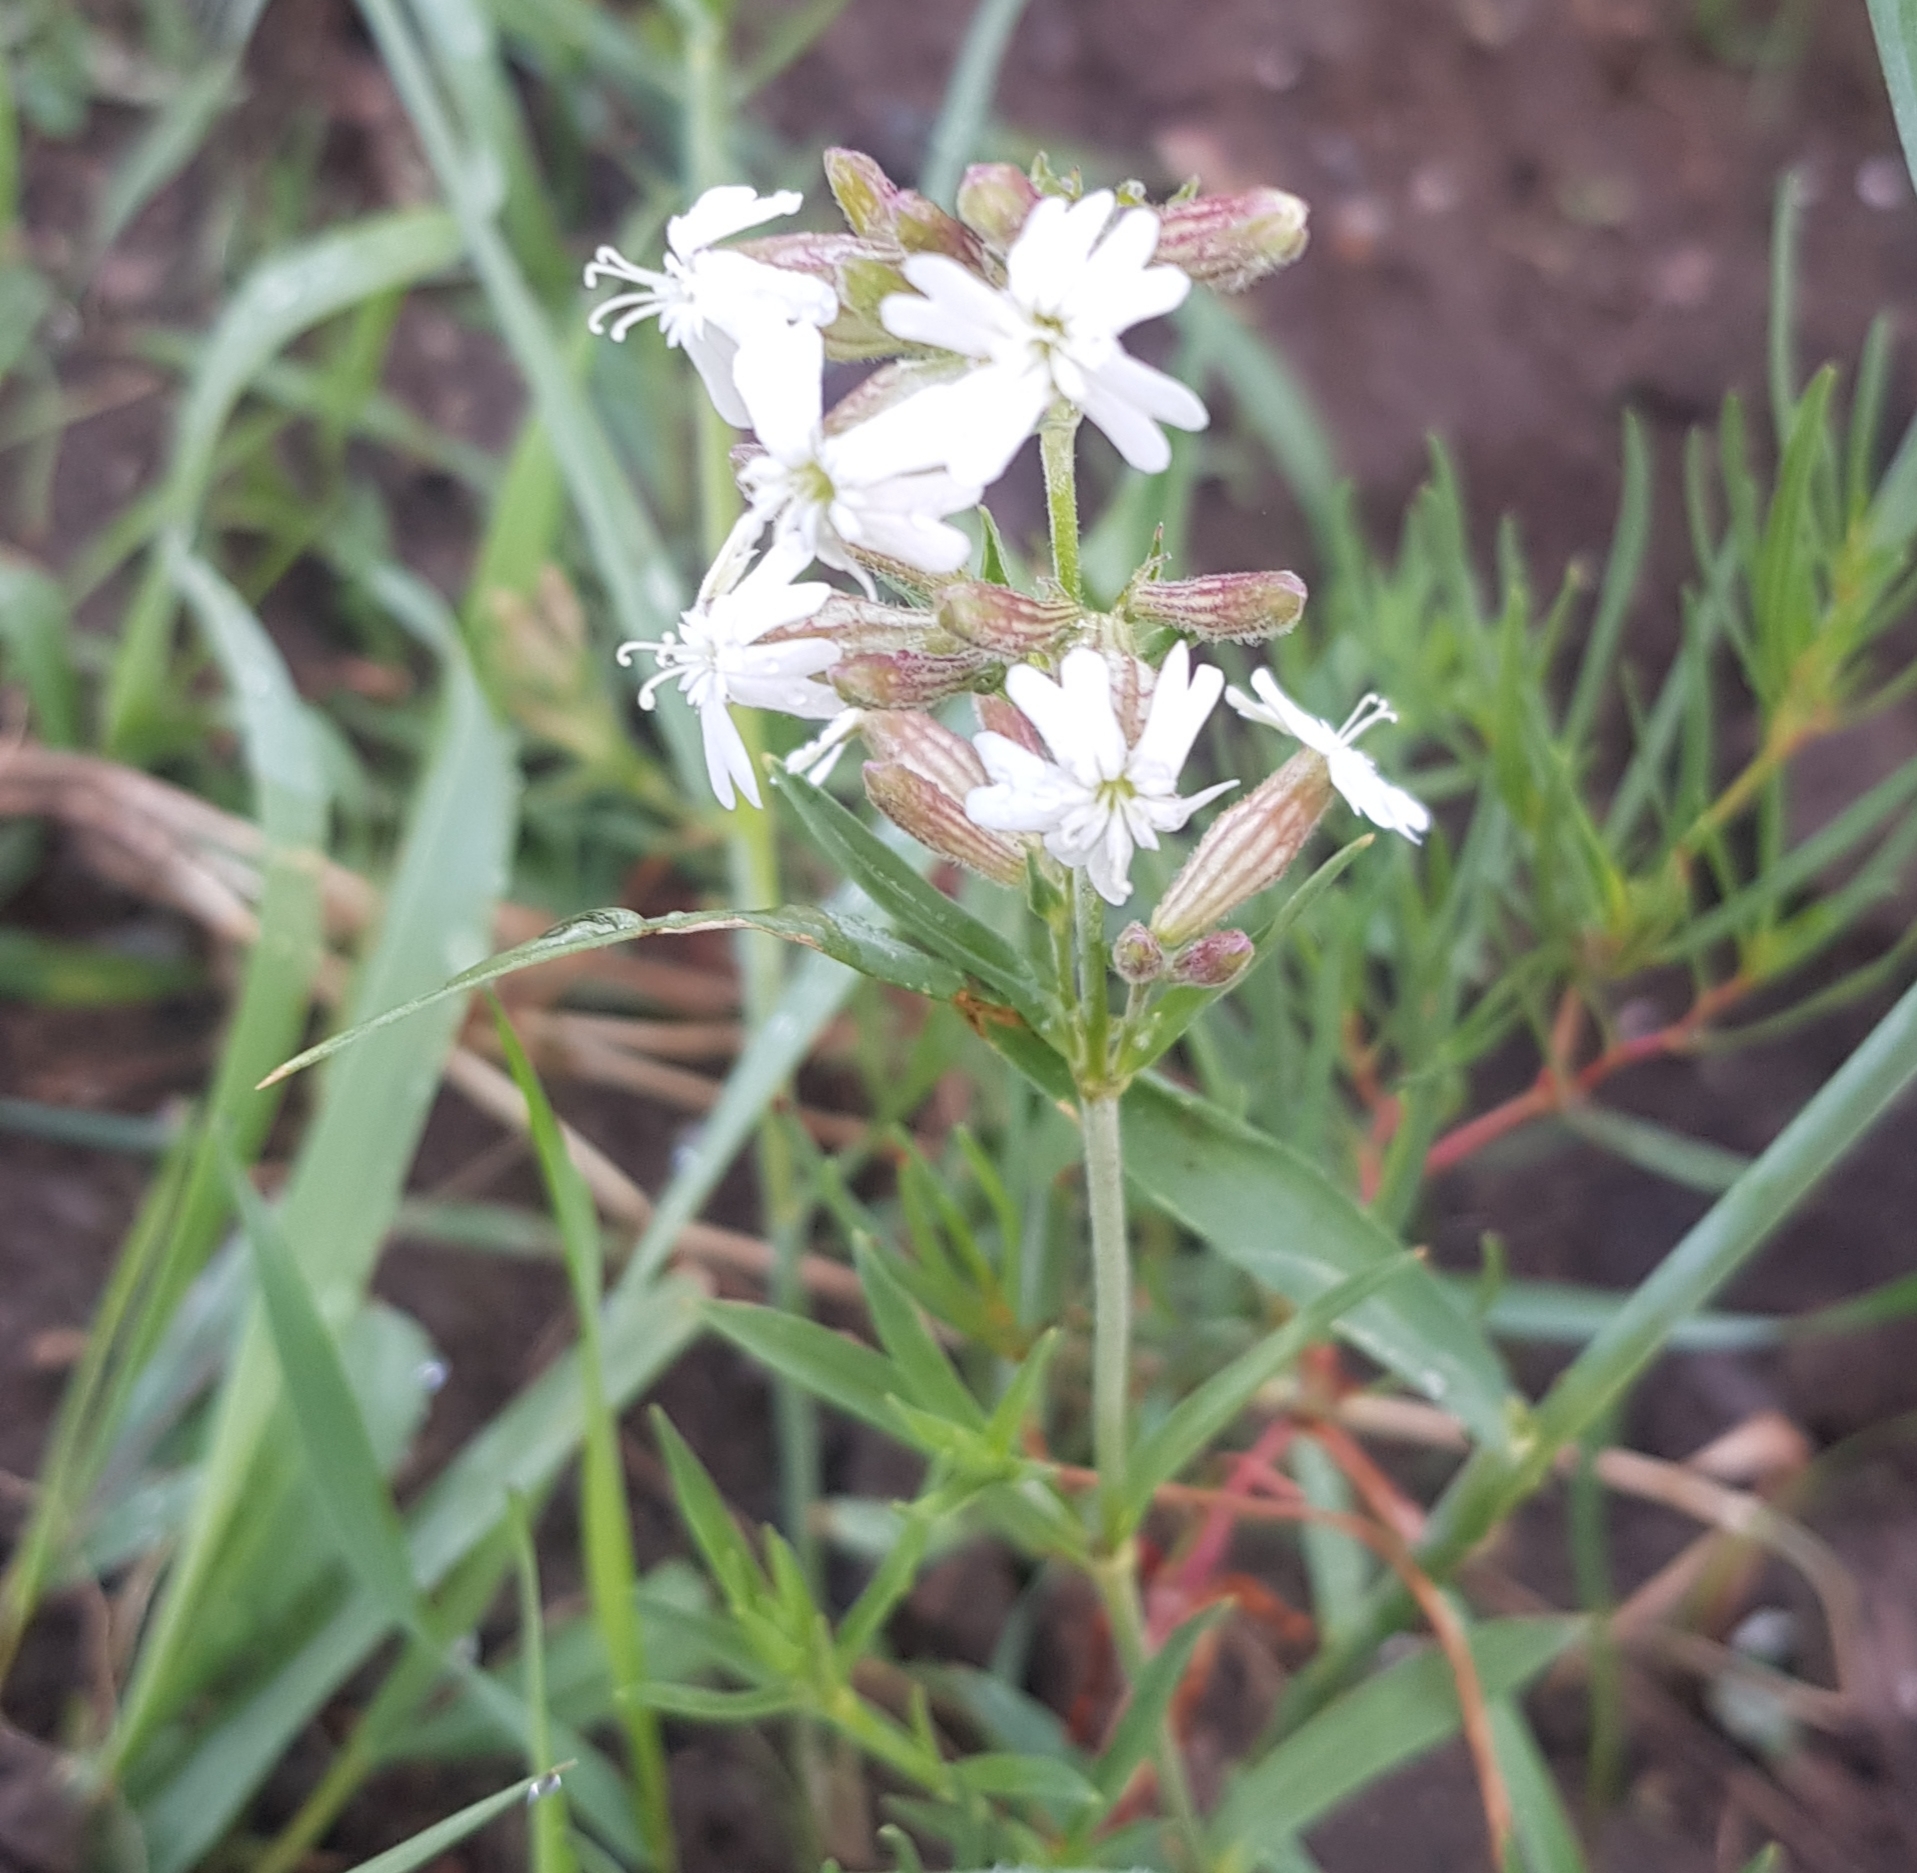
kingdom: Plantae
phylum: Tracheophyta
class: Magnoliopsida
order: Caryophyllales
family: Caryophyllaceae
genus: Silene
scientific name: Silene repens
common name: Pink campion
